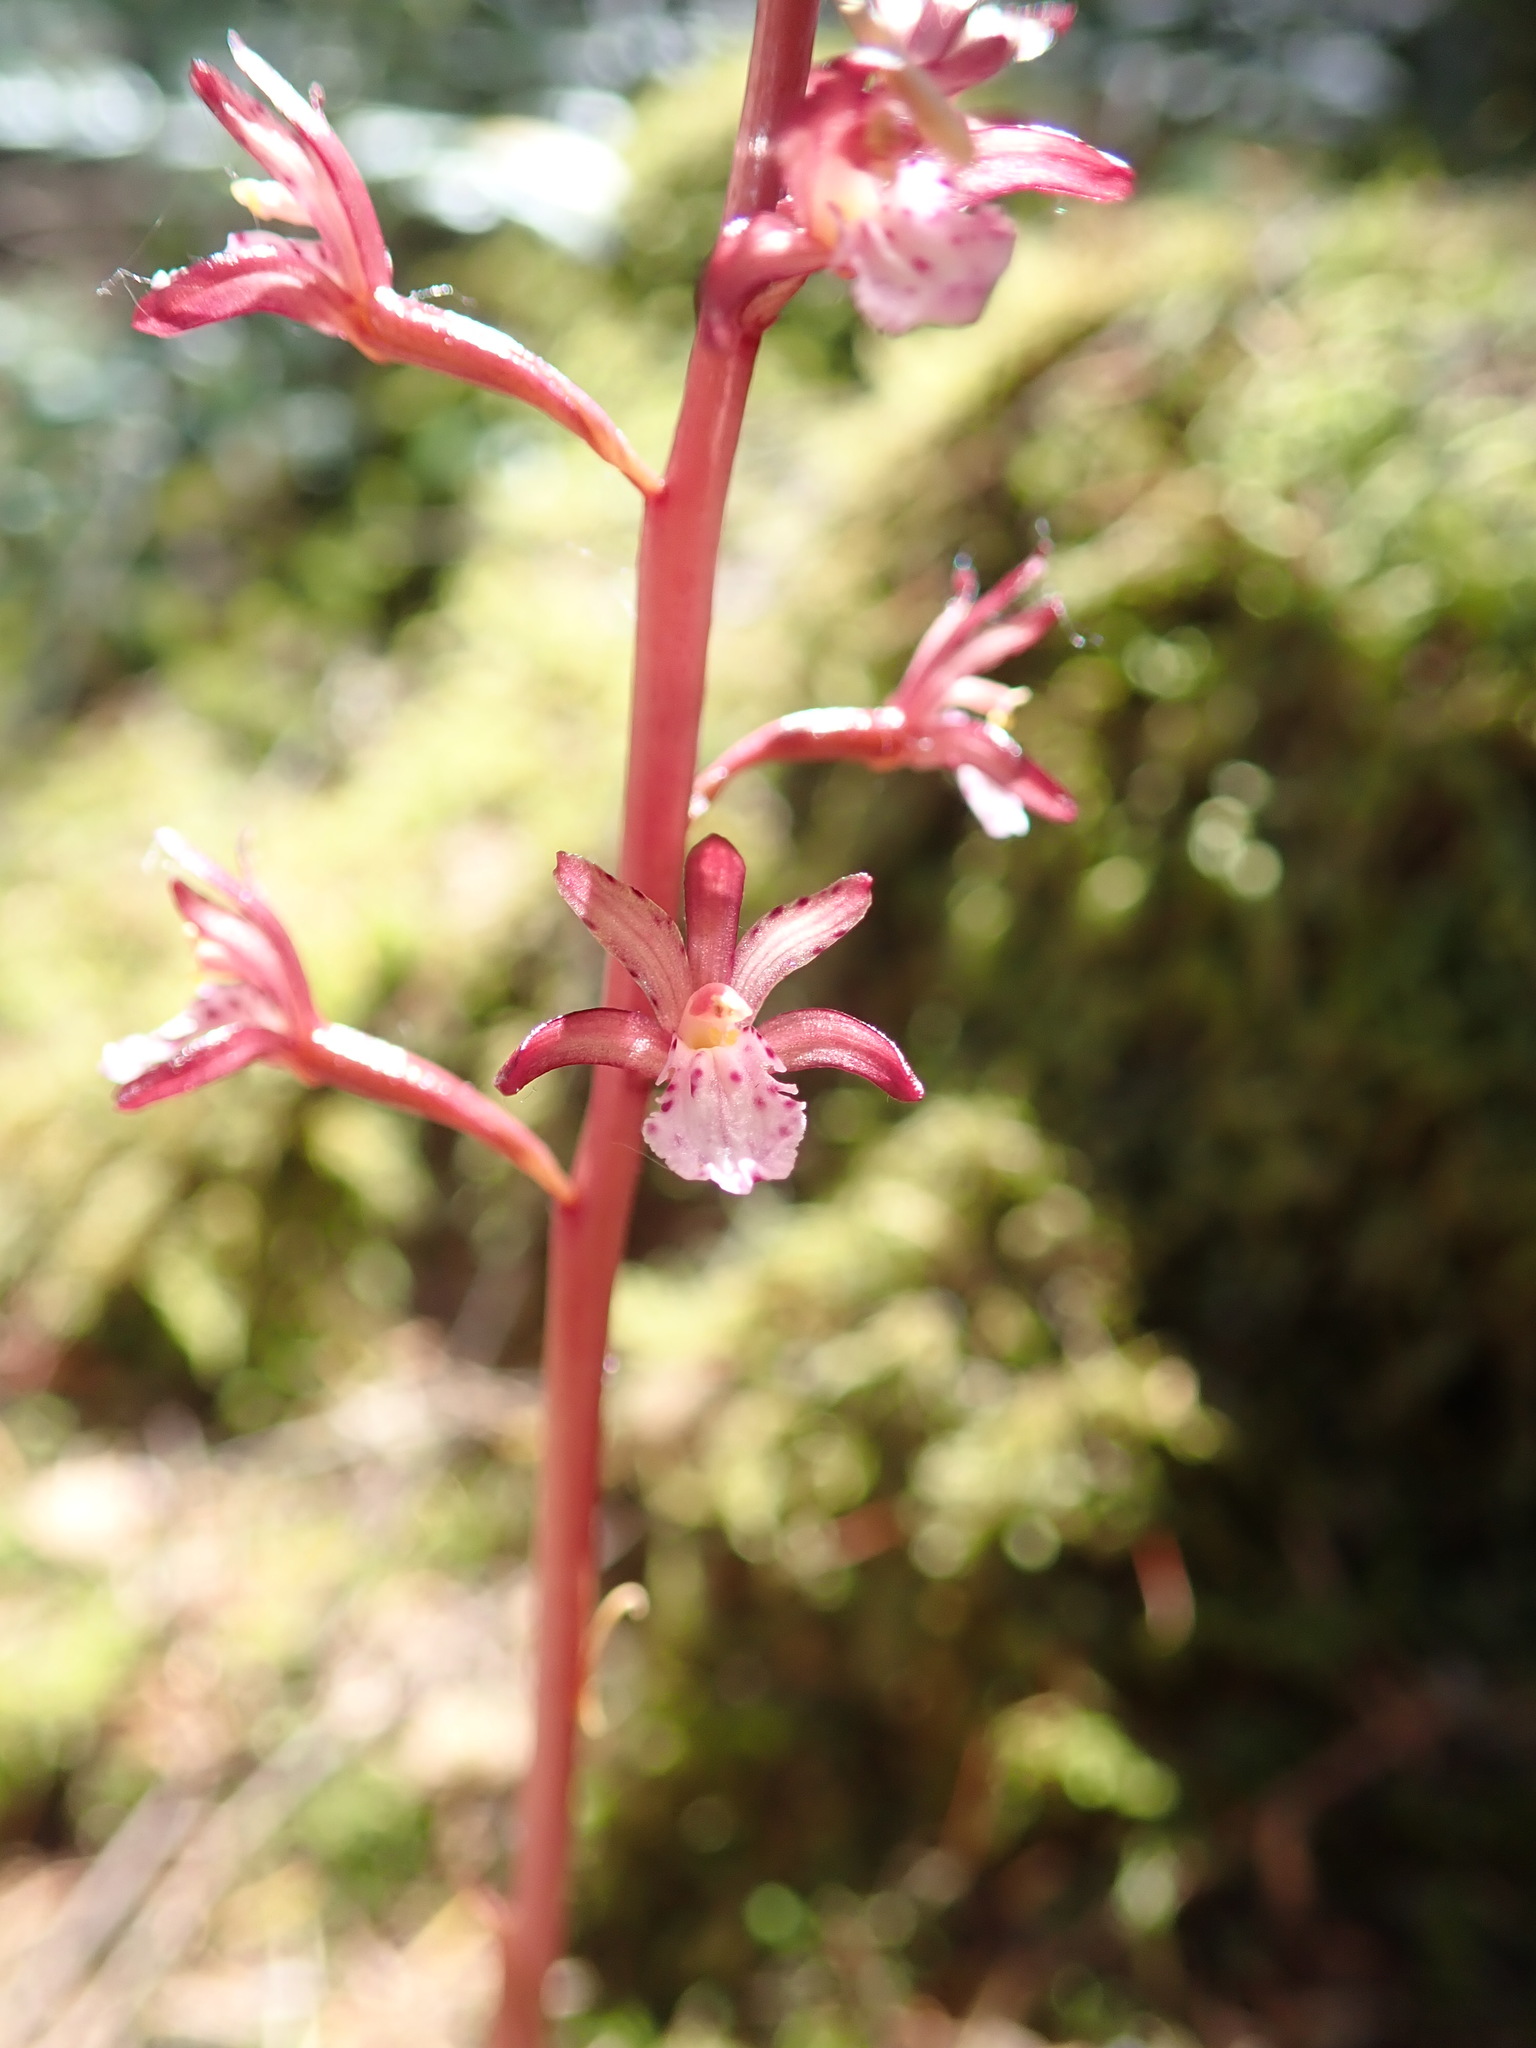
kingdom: Plantae
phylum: Tracheophyta
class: Liliopsida
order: Asparagales
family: Orchidaceae
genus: Corallorhiza
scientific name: Corallorhiza maculata
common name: Spotted coralroot
